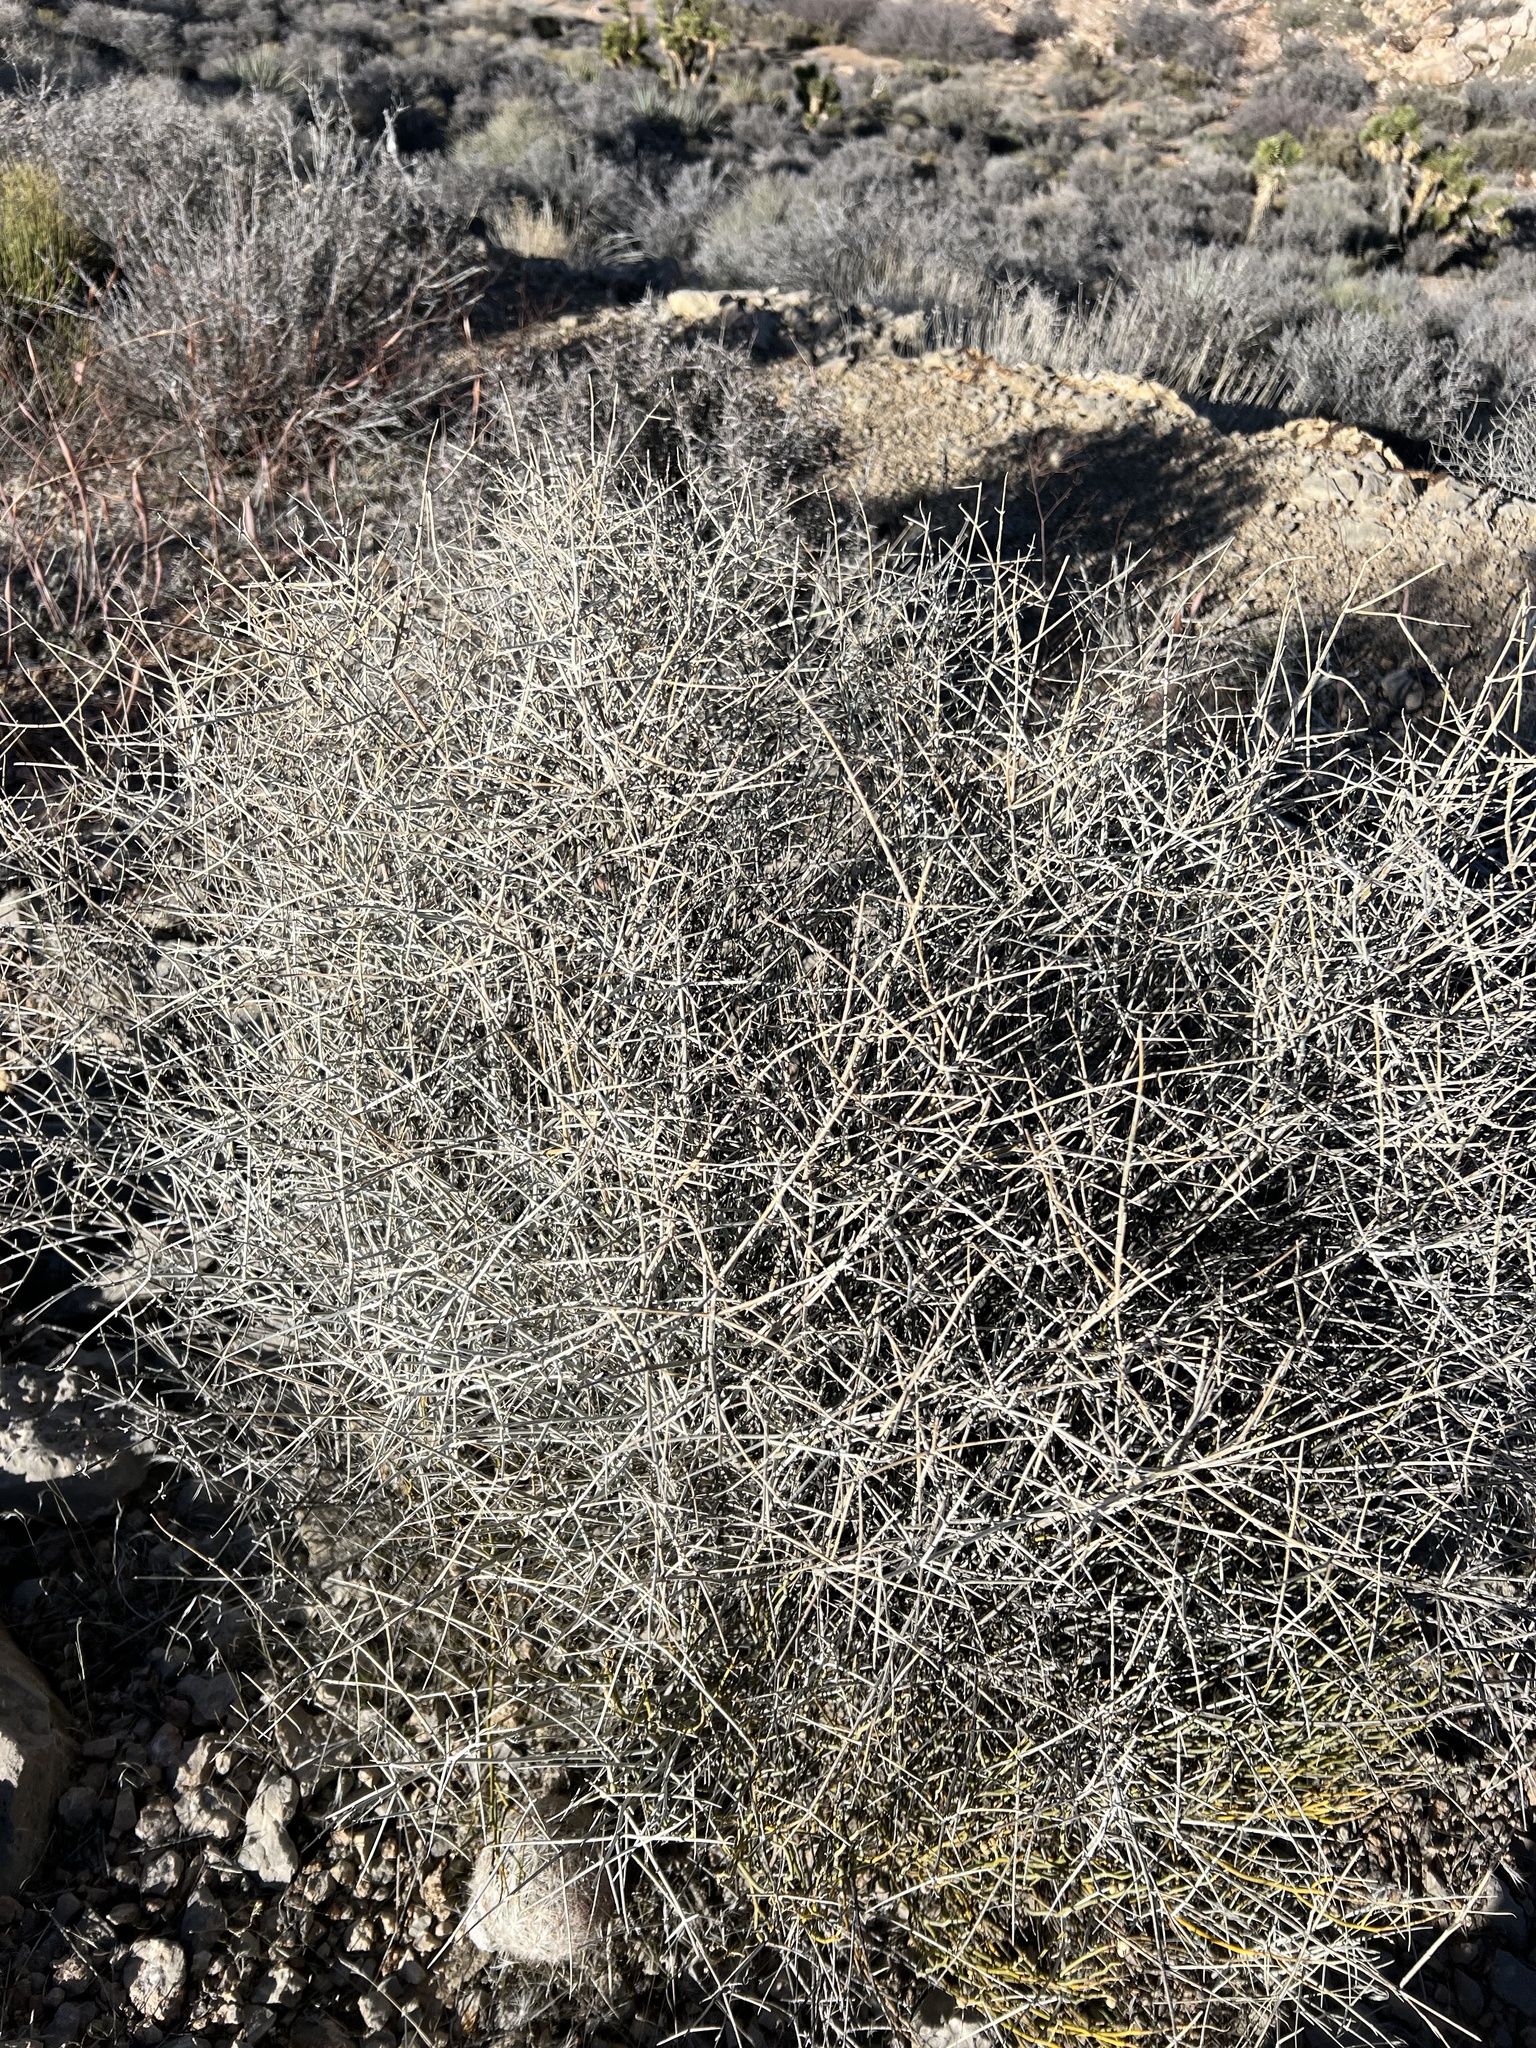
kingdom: Plantae
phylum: Tracheophyta
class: Magnoliopsida
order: Lamiales
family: Lamiaceae
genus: Scutellaria
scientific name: Scutellaria mexicana
